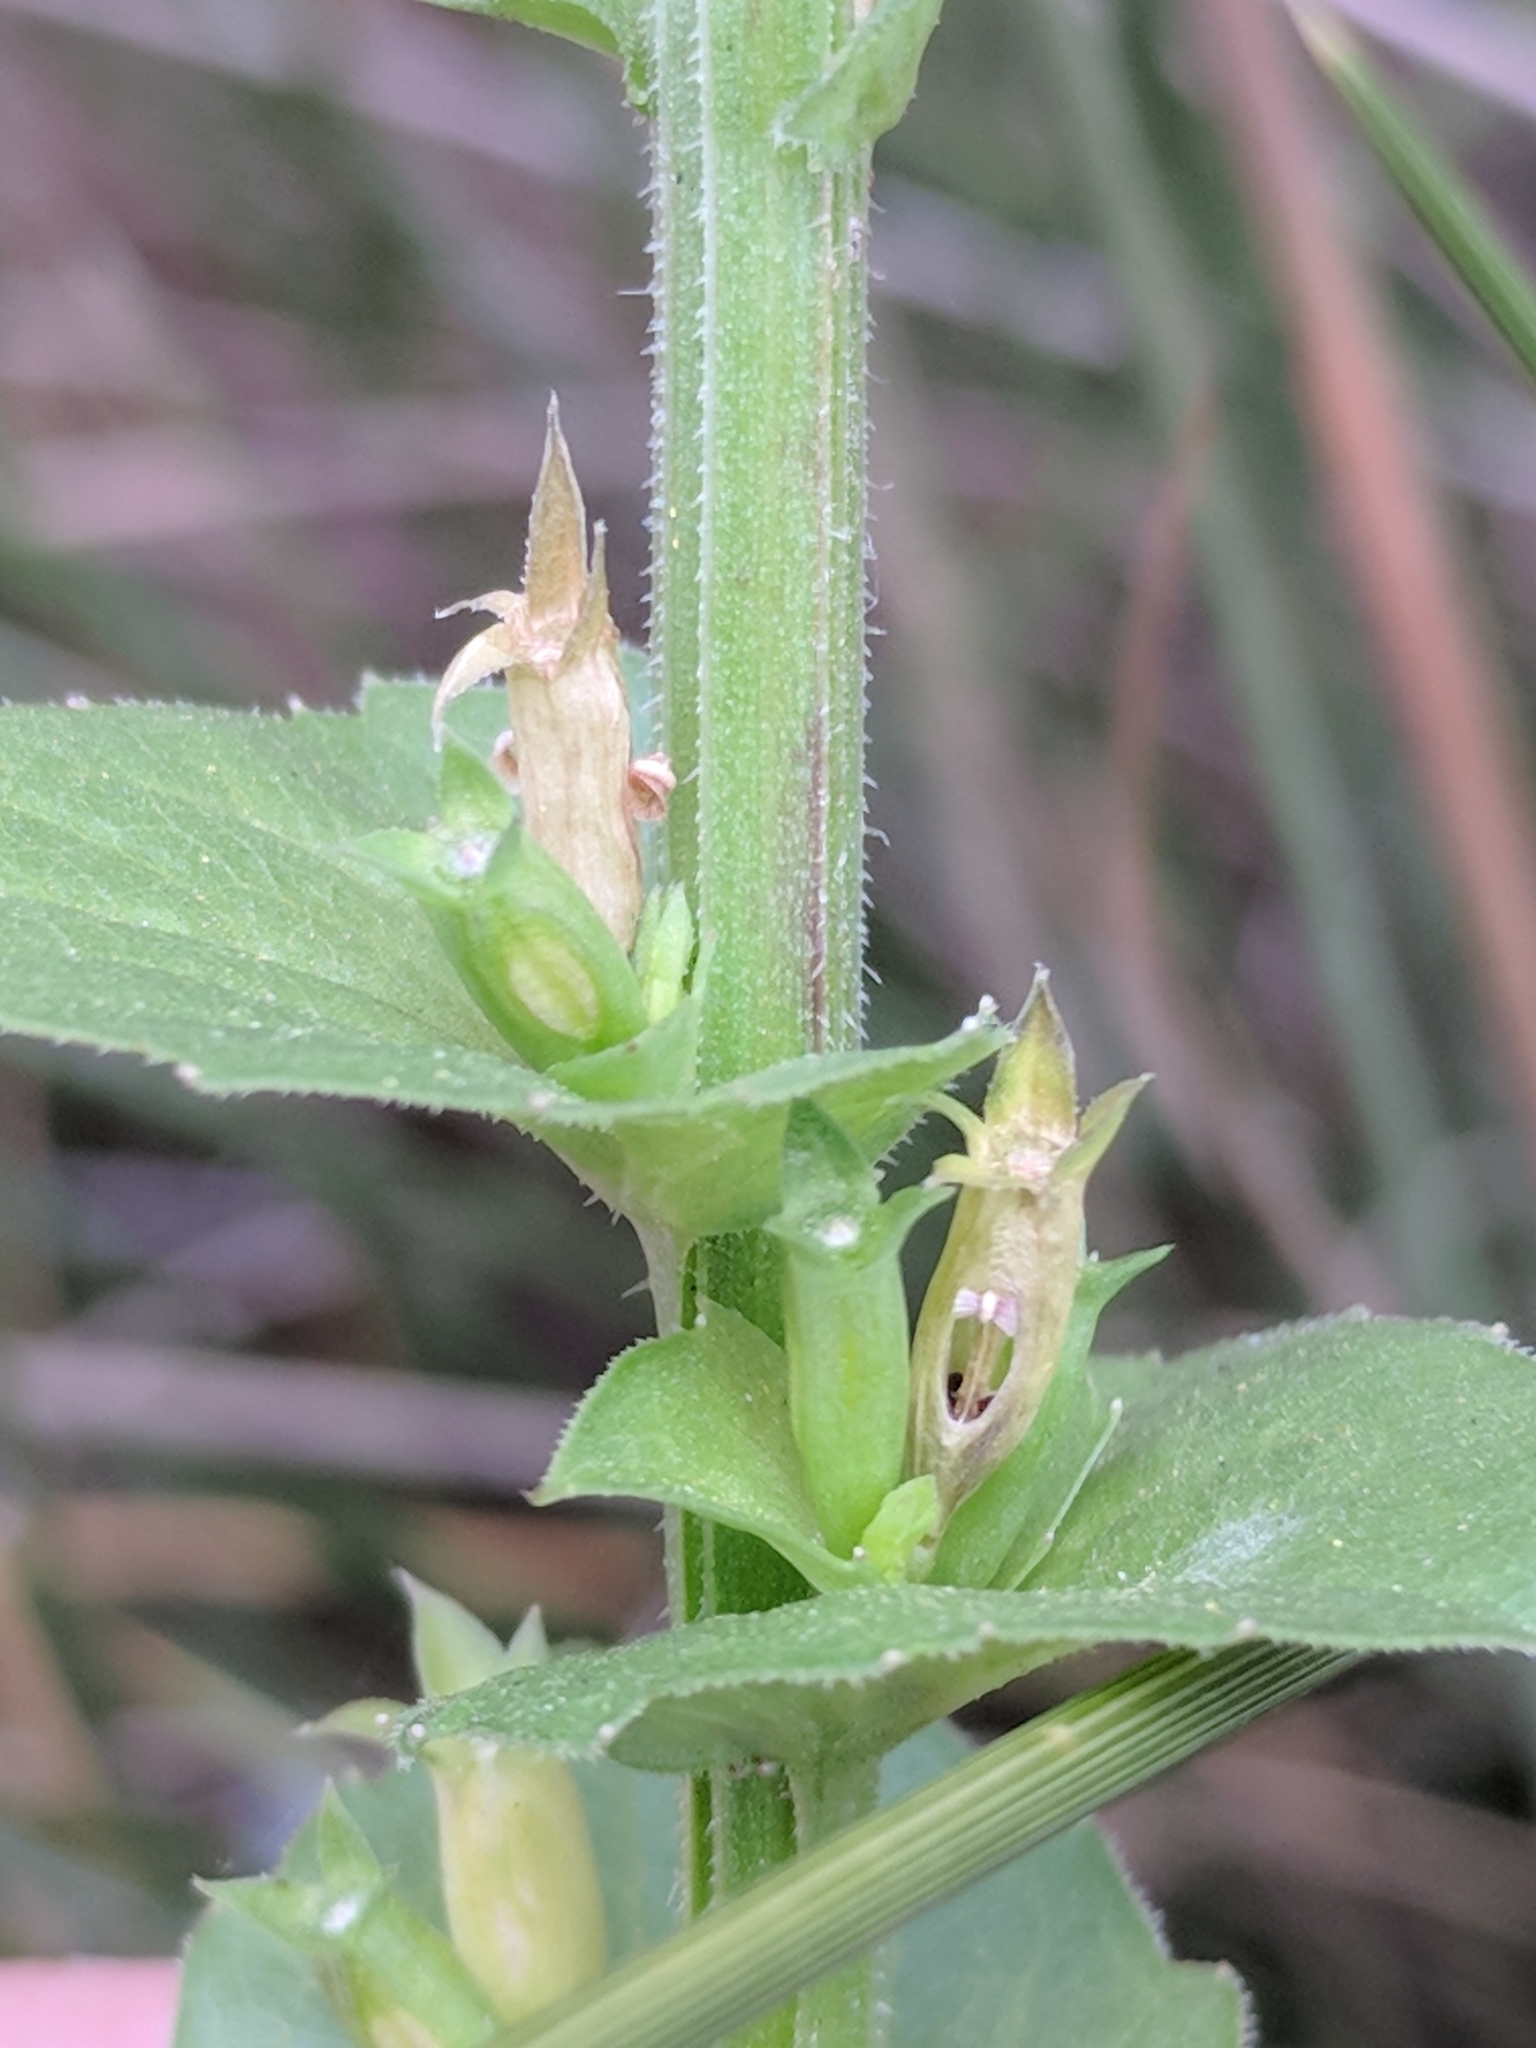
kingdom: Plantae
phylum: Tracheophyta
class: Magnoliopsida
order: Asterales
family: Campanulaceae
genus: Triodanis
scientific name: Triodanis perfoliata
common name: Clasping venus' looking-glass
